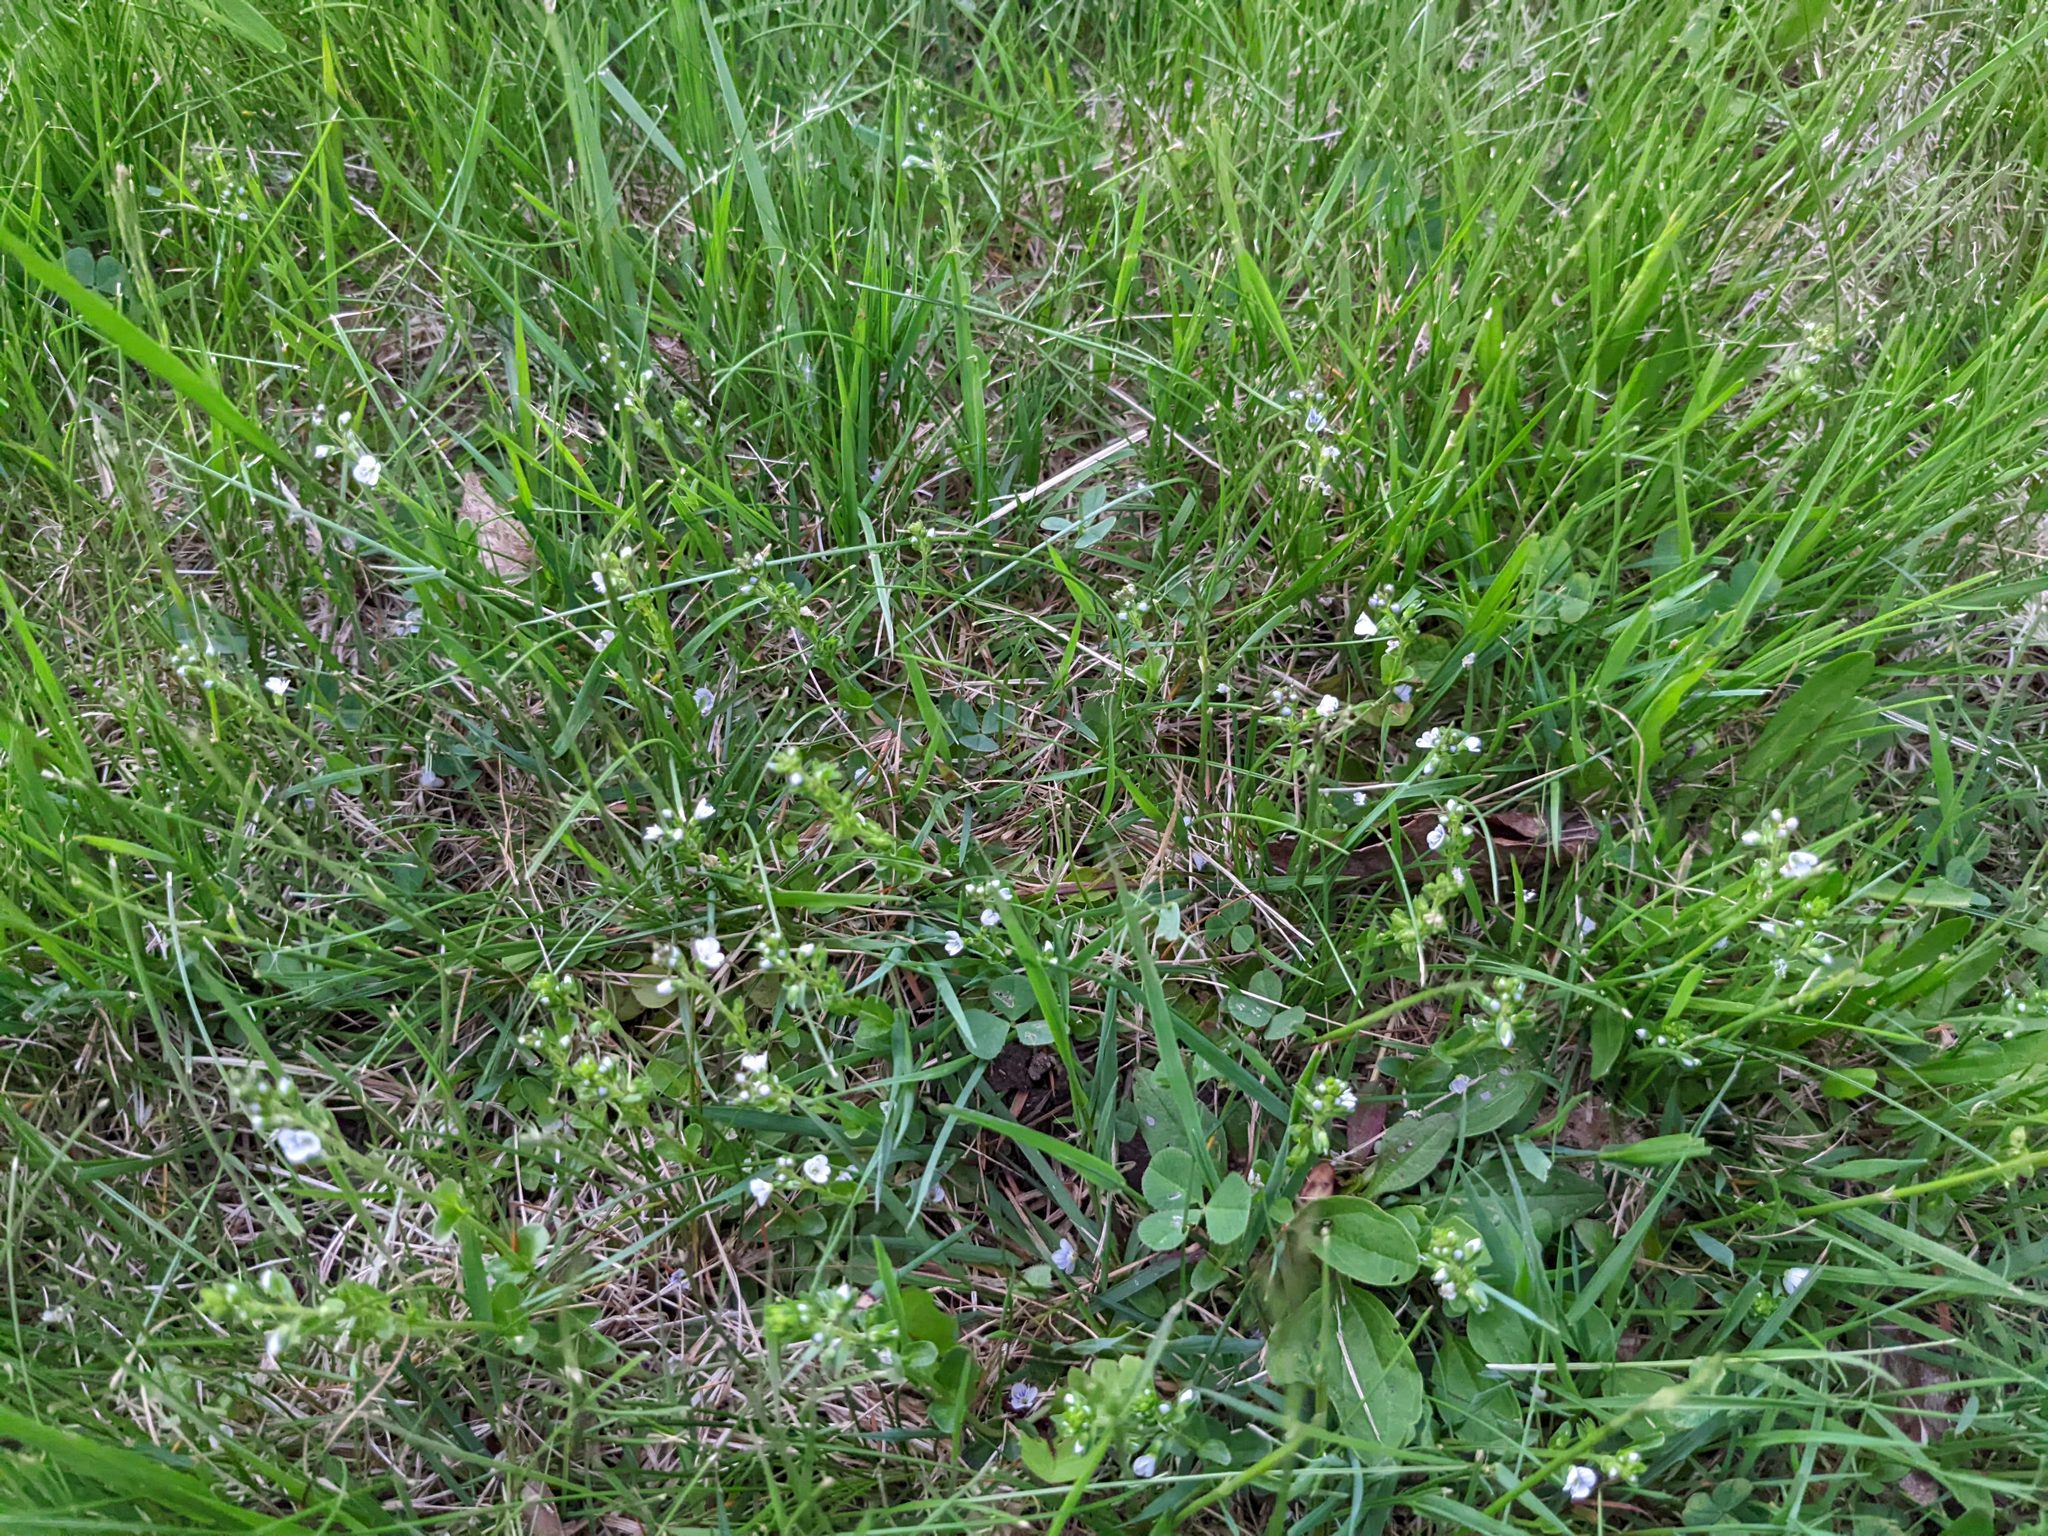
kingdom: Plantae
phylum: Tracheophyta
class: Magnoliopsida
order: Lamiales
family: Plantaginaceae
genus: Veronica
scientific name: Veronica serpyllifolia
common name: Thyme-leaved speedwell
